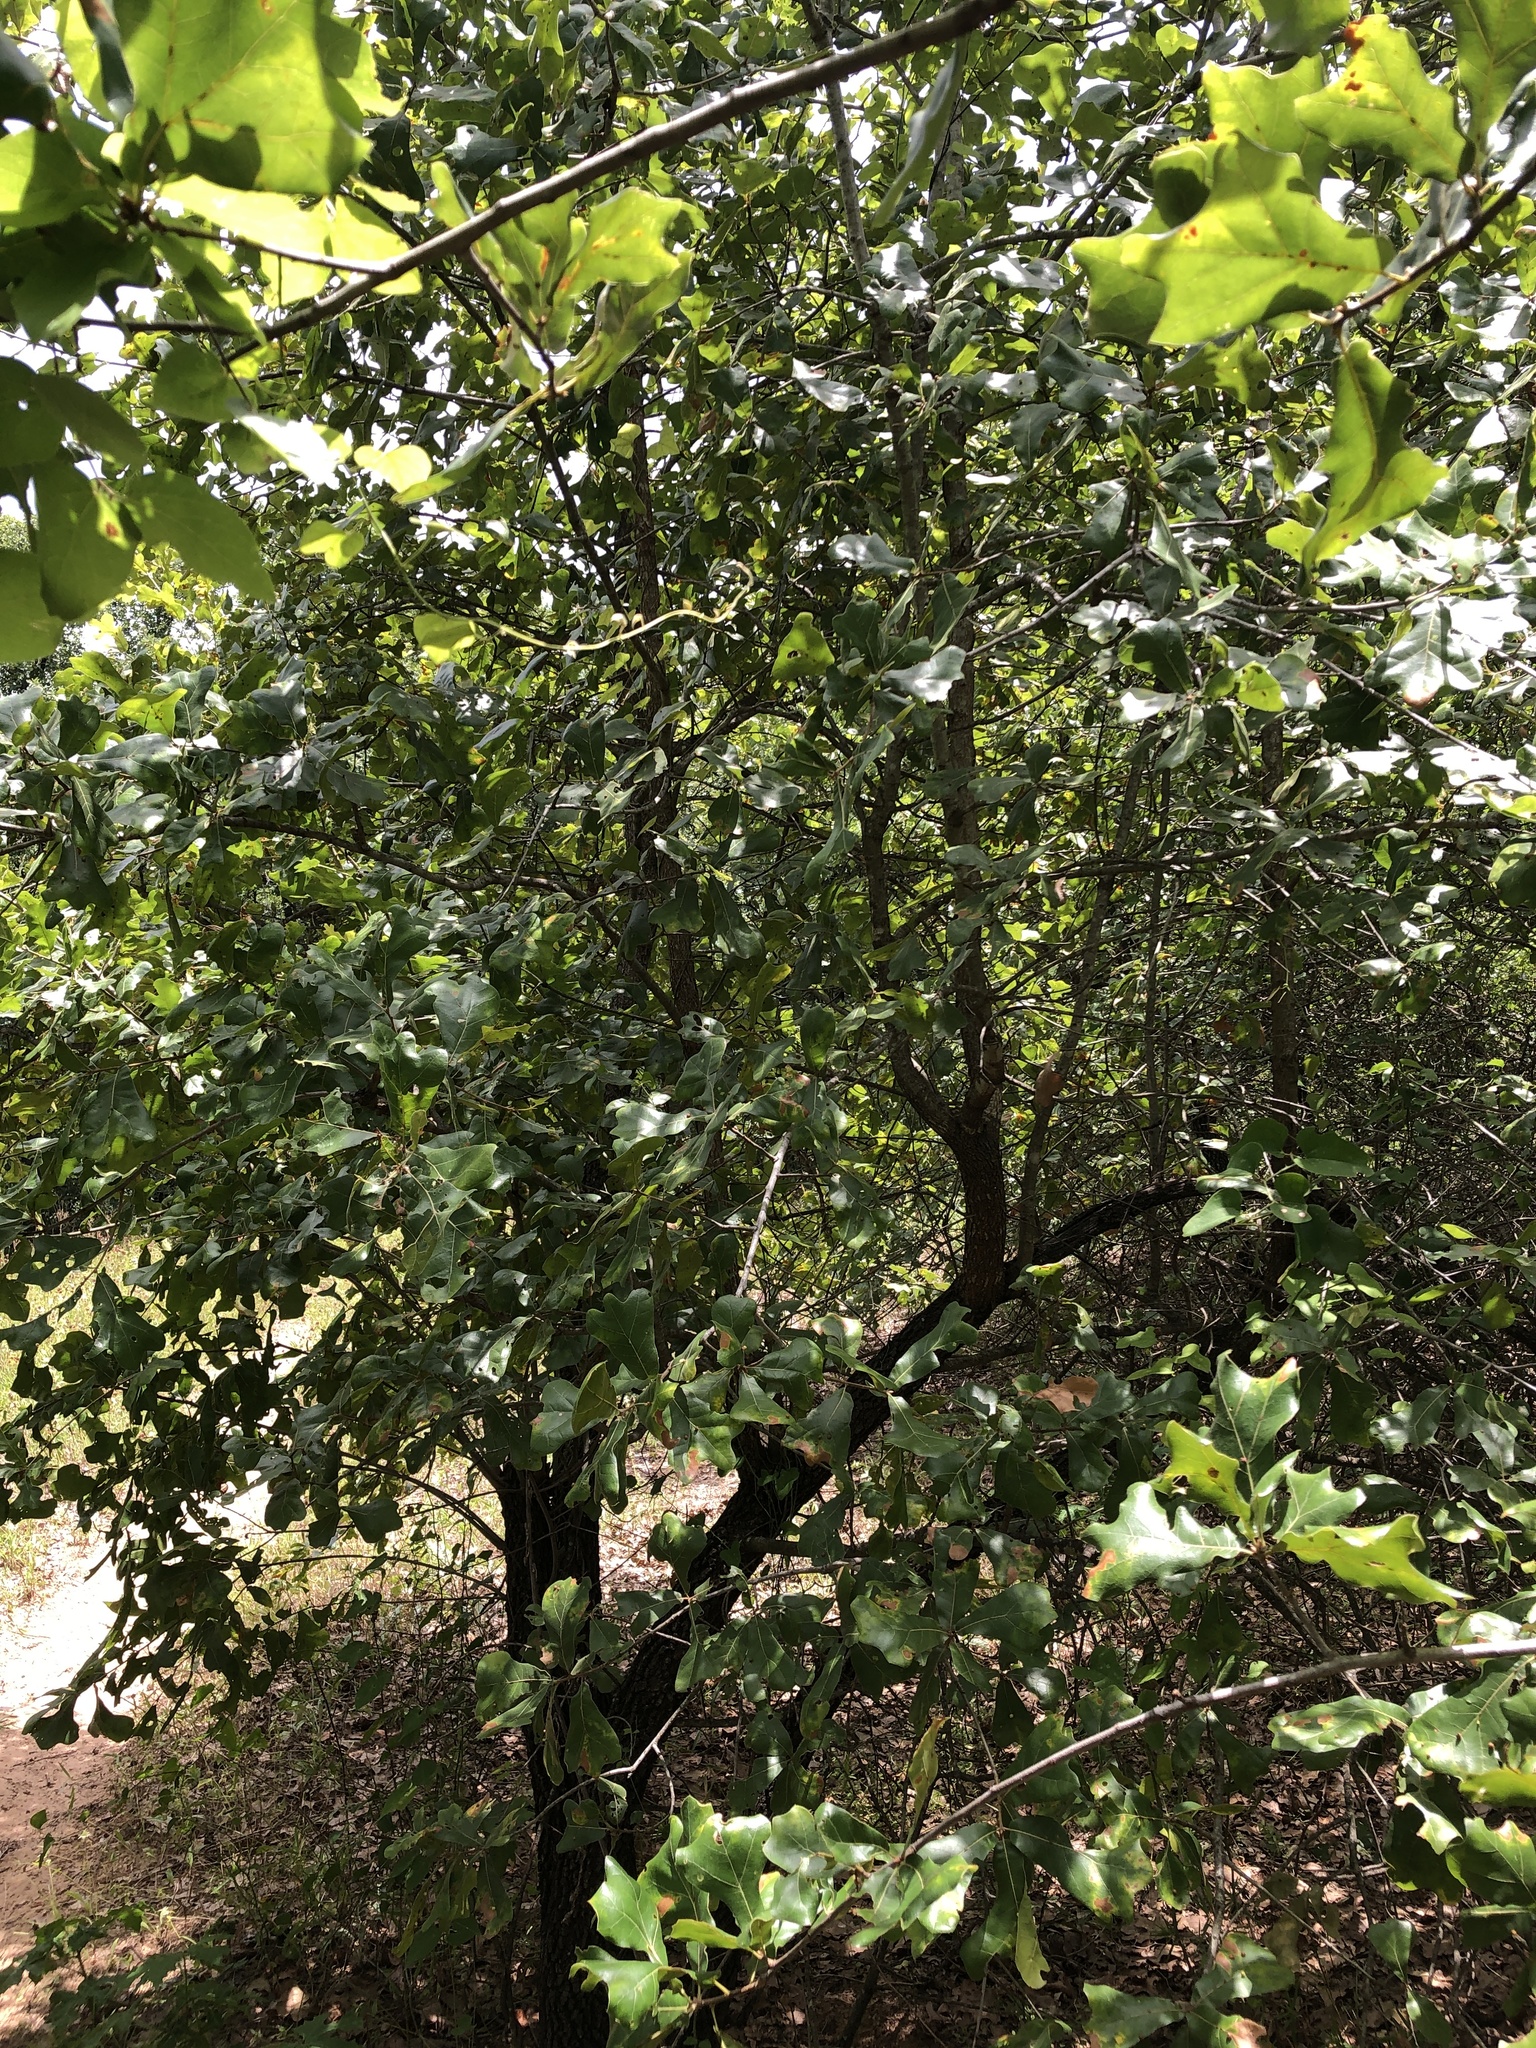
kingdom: Plantae
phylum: Tracheophyta
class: Magnoliopsida
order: Fagales
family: Fagaceae
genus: Quercus
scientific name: Quercus marilandica
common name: Blackjack oak
